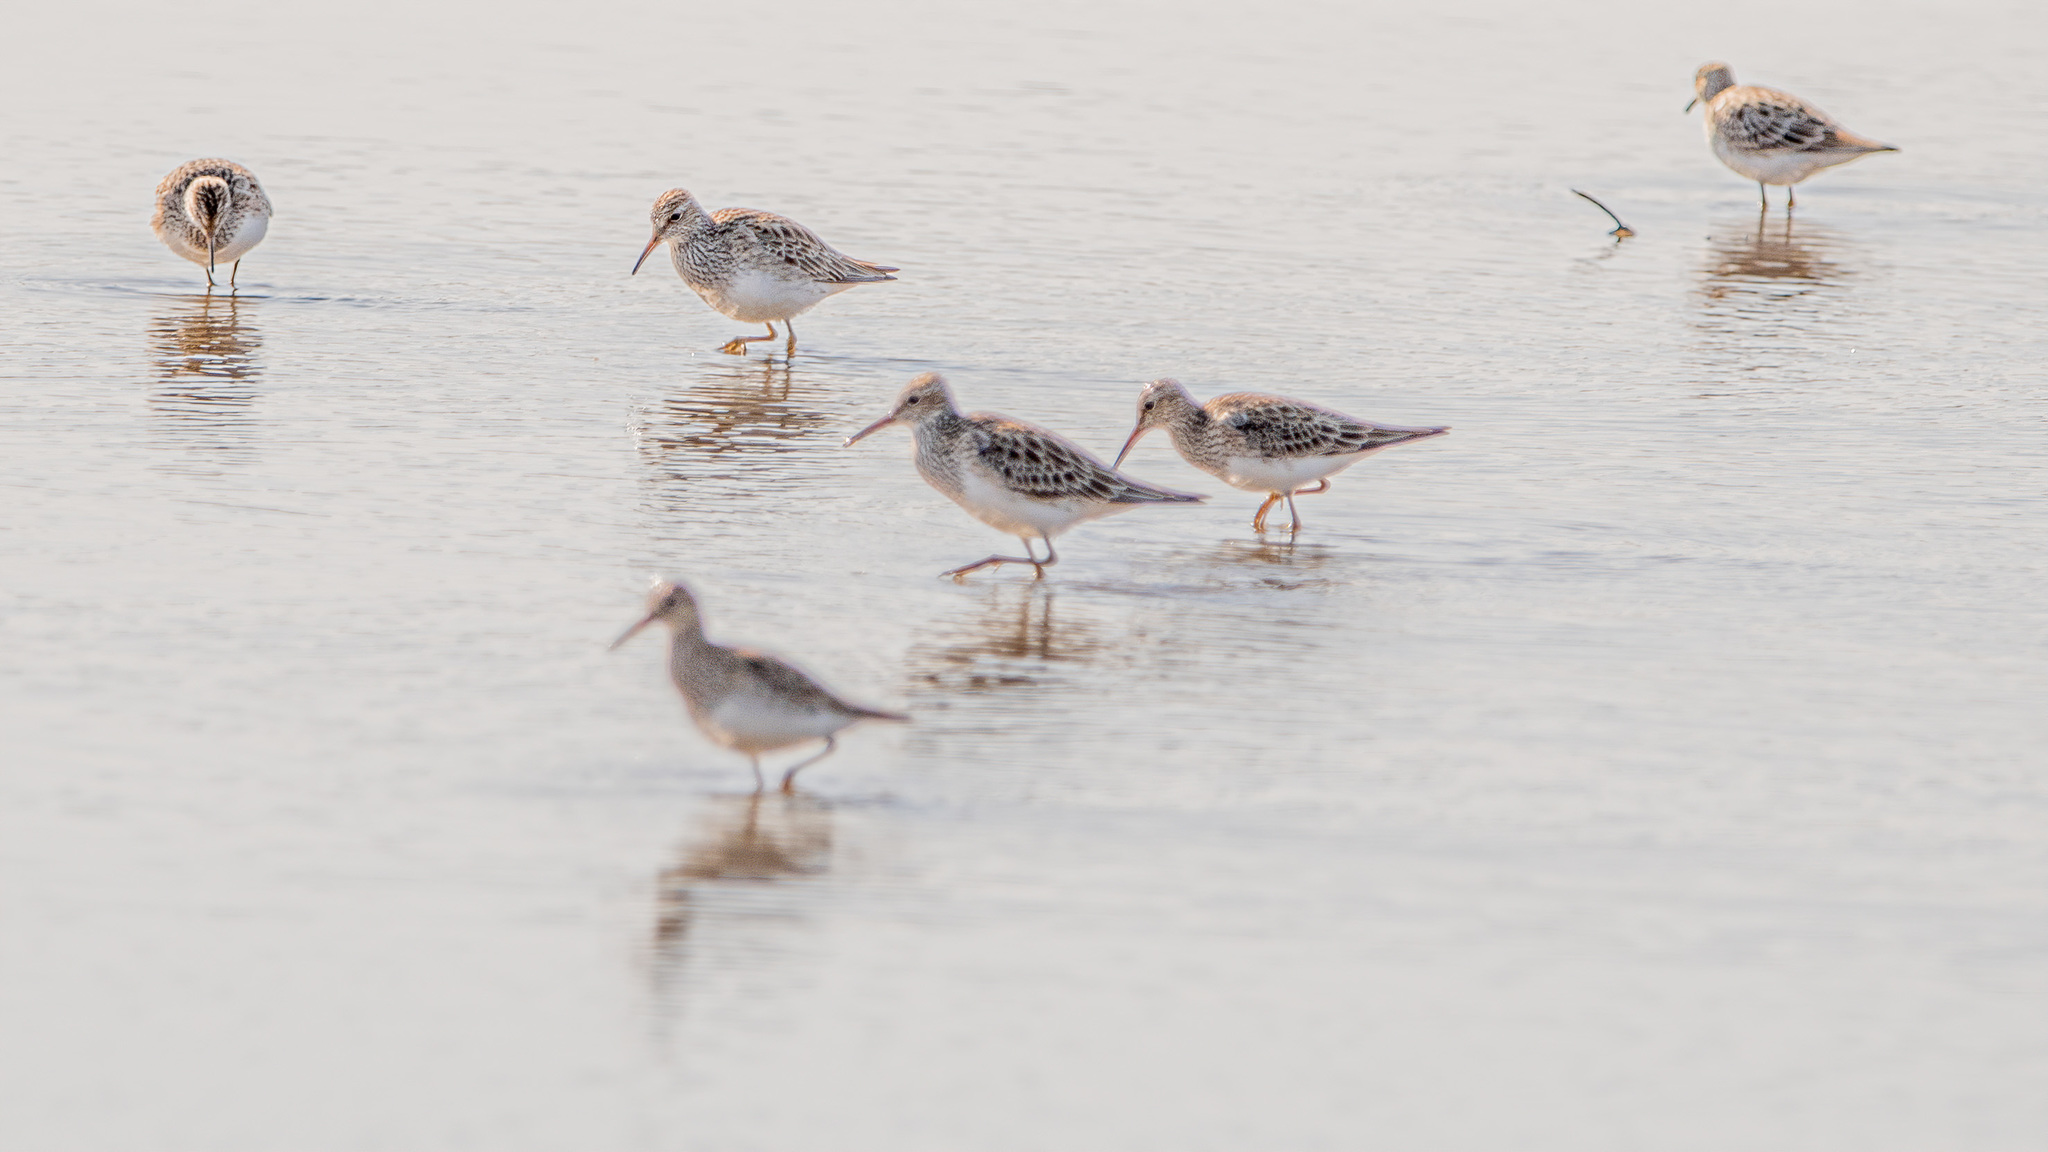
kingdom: Animalia
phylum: Chordata
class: Aves
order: Charadriiformes
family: Scolopacidae
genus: Calidris
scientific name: Calidris melanotos
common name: Pectoral sandpiper
